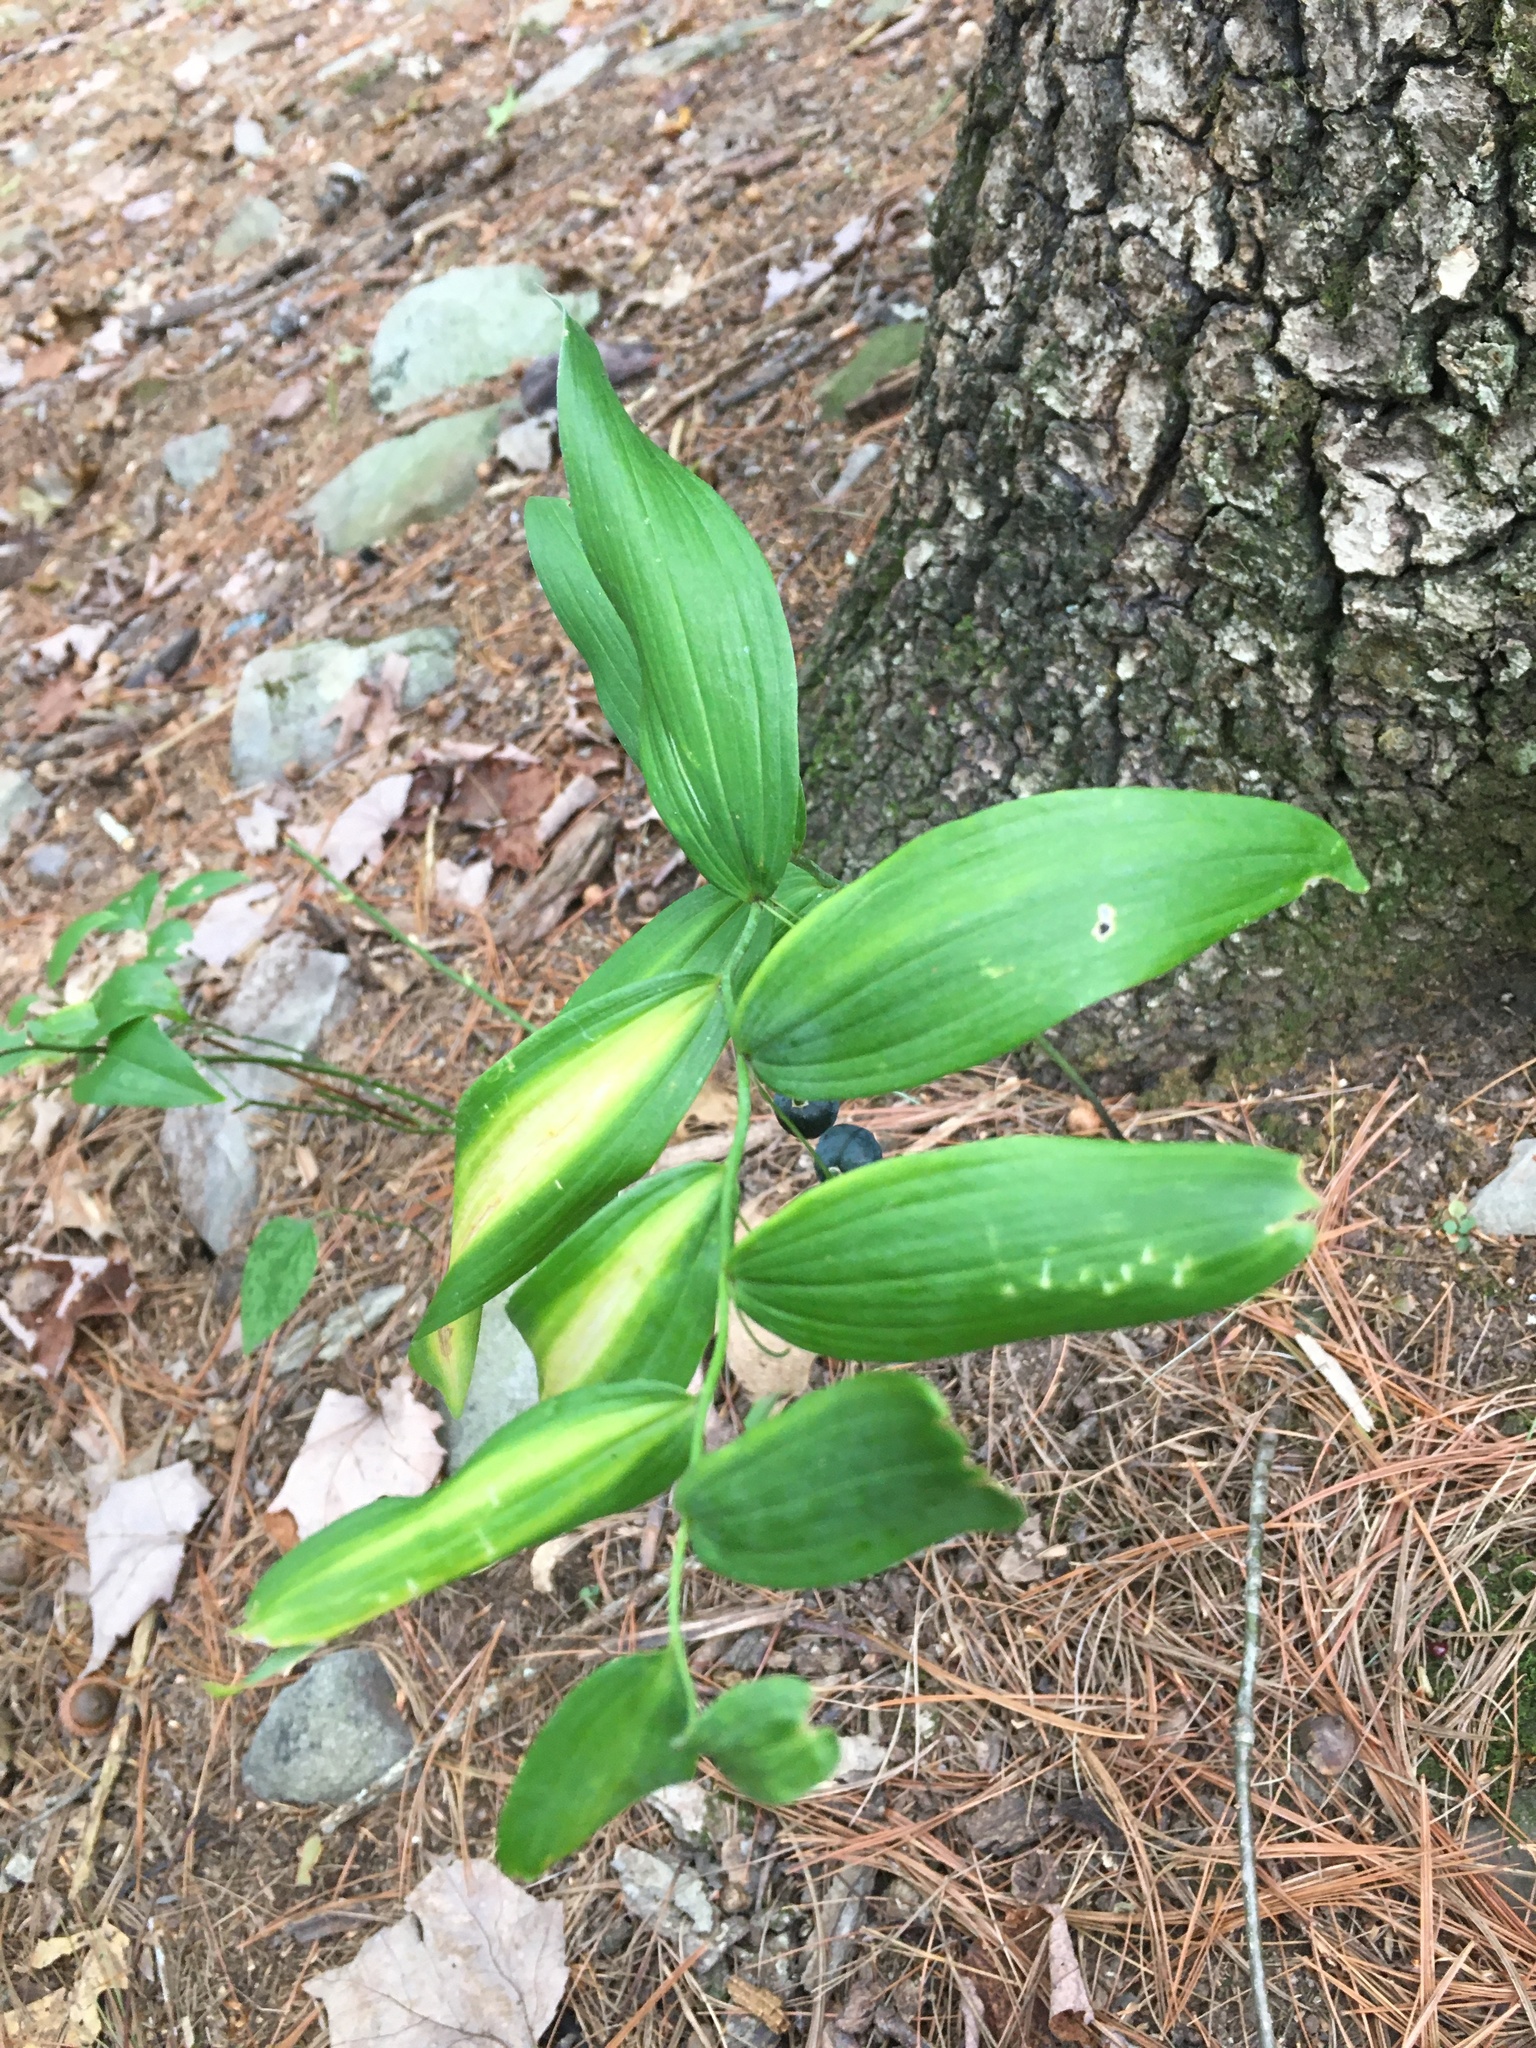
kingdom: Plantae
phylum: Tracheophyta
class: Liliopsida
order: Asparagales
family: Asparagaceae
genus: Polygonatum
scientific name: Polygonatum biflorum
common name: American solomon's-seal
